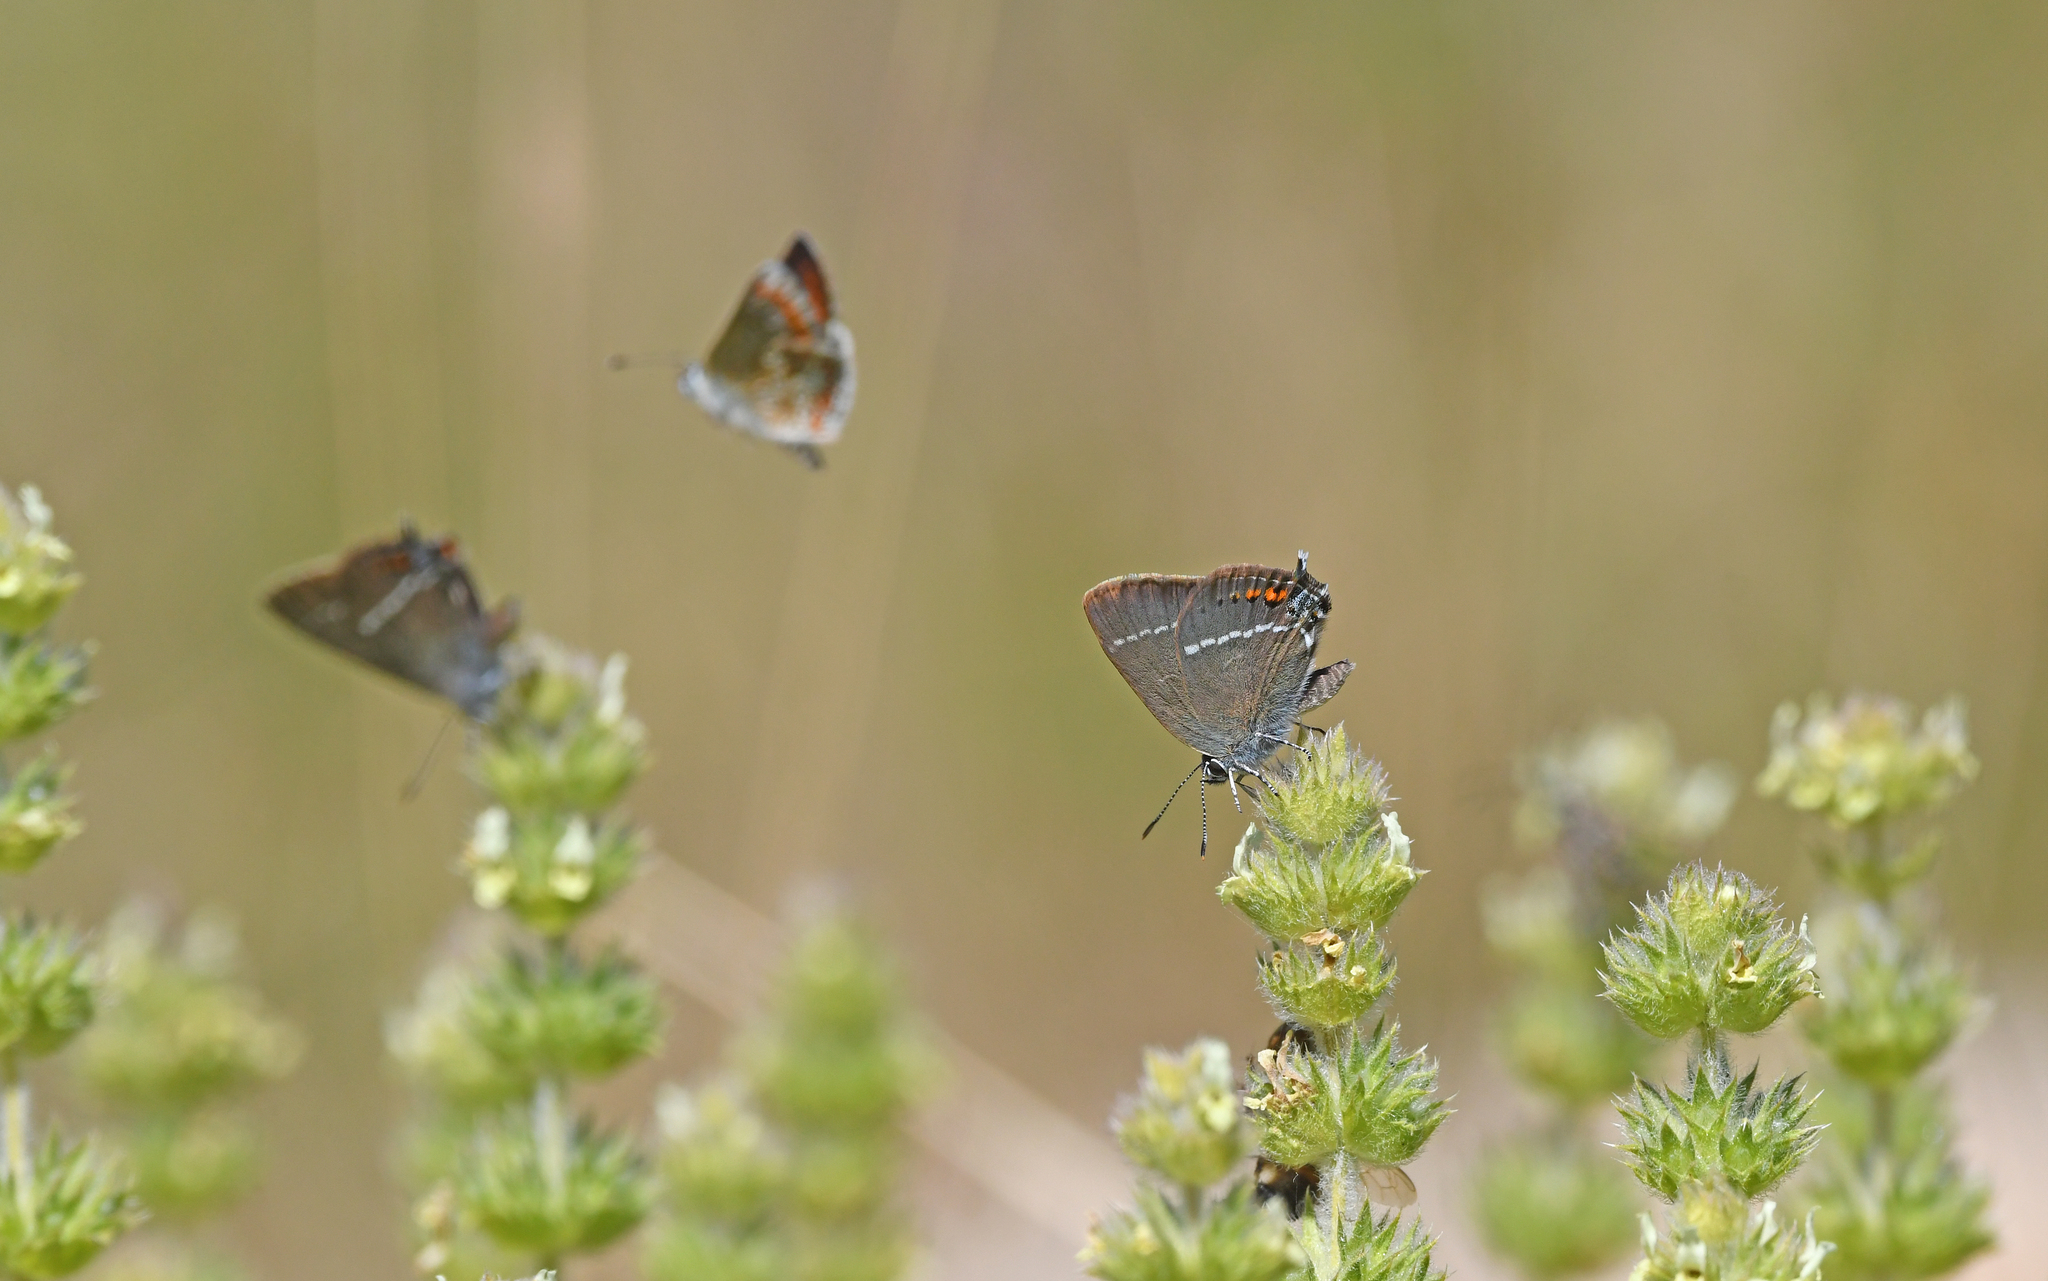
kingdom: Animalia
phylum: Arthropoda
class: Insecta
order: Lepidoptera
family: Lycaenidae
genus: Tuttiola
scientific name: Tuttiola spini
